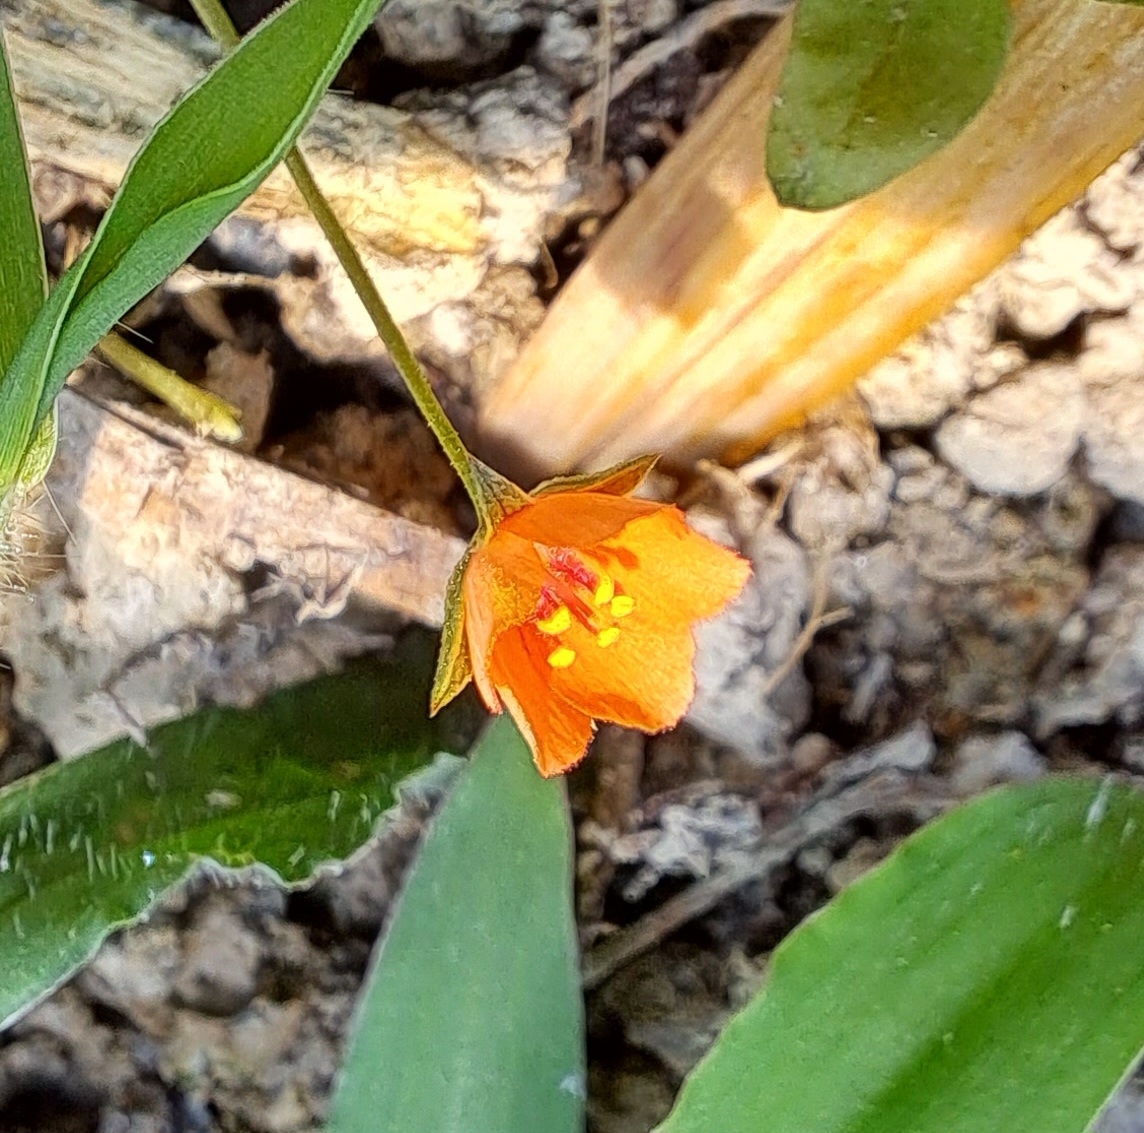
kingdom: Plantae
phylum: Tracheophyta
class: Magnoliopsida
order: Ericales
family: Primulaceae
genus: Lysimachia
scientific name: Lysimachia arvensis
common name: Scarlet pimpernel
